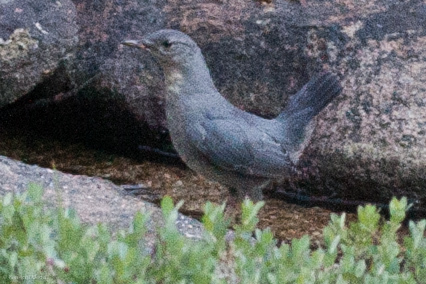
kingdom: Animalia
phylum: Chordata
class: Aves
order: Passeriformes
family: Cinclidae
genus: Cinclus
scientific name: Cinclus mexicanus
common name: American dipper
